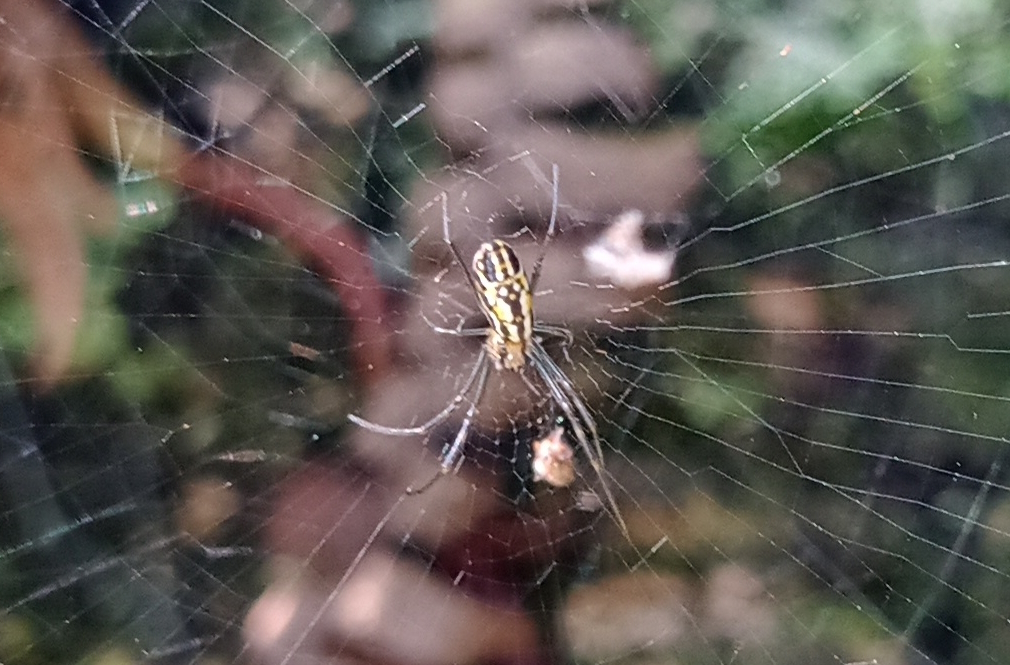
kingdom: Animalia
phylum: Arthropoda
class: Arachnida
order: Araneae
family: Araneidae
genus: Trichonephila
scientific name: Trichonephila clavipes
